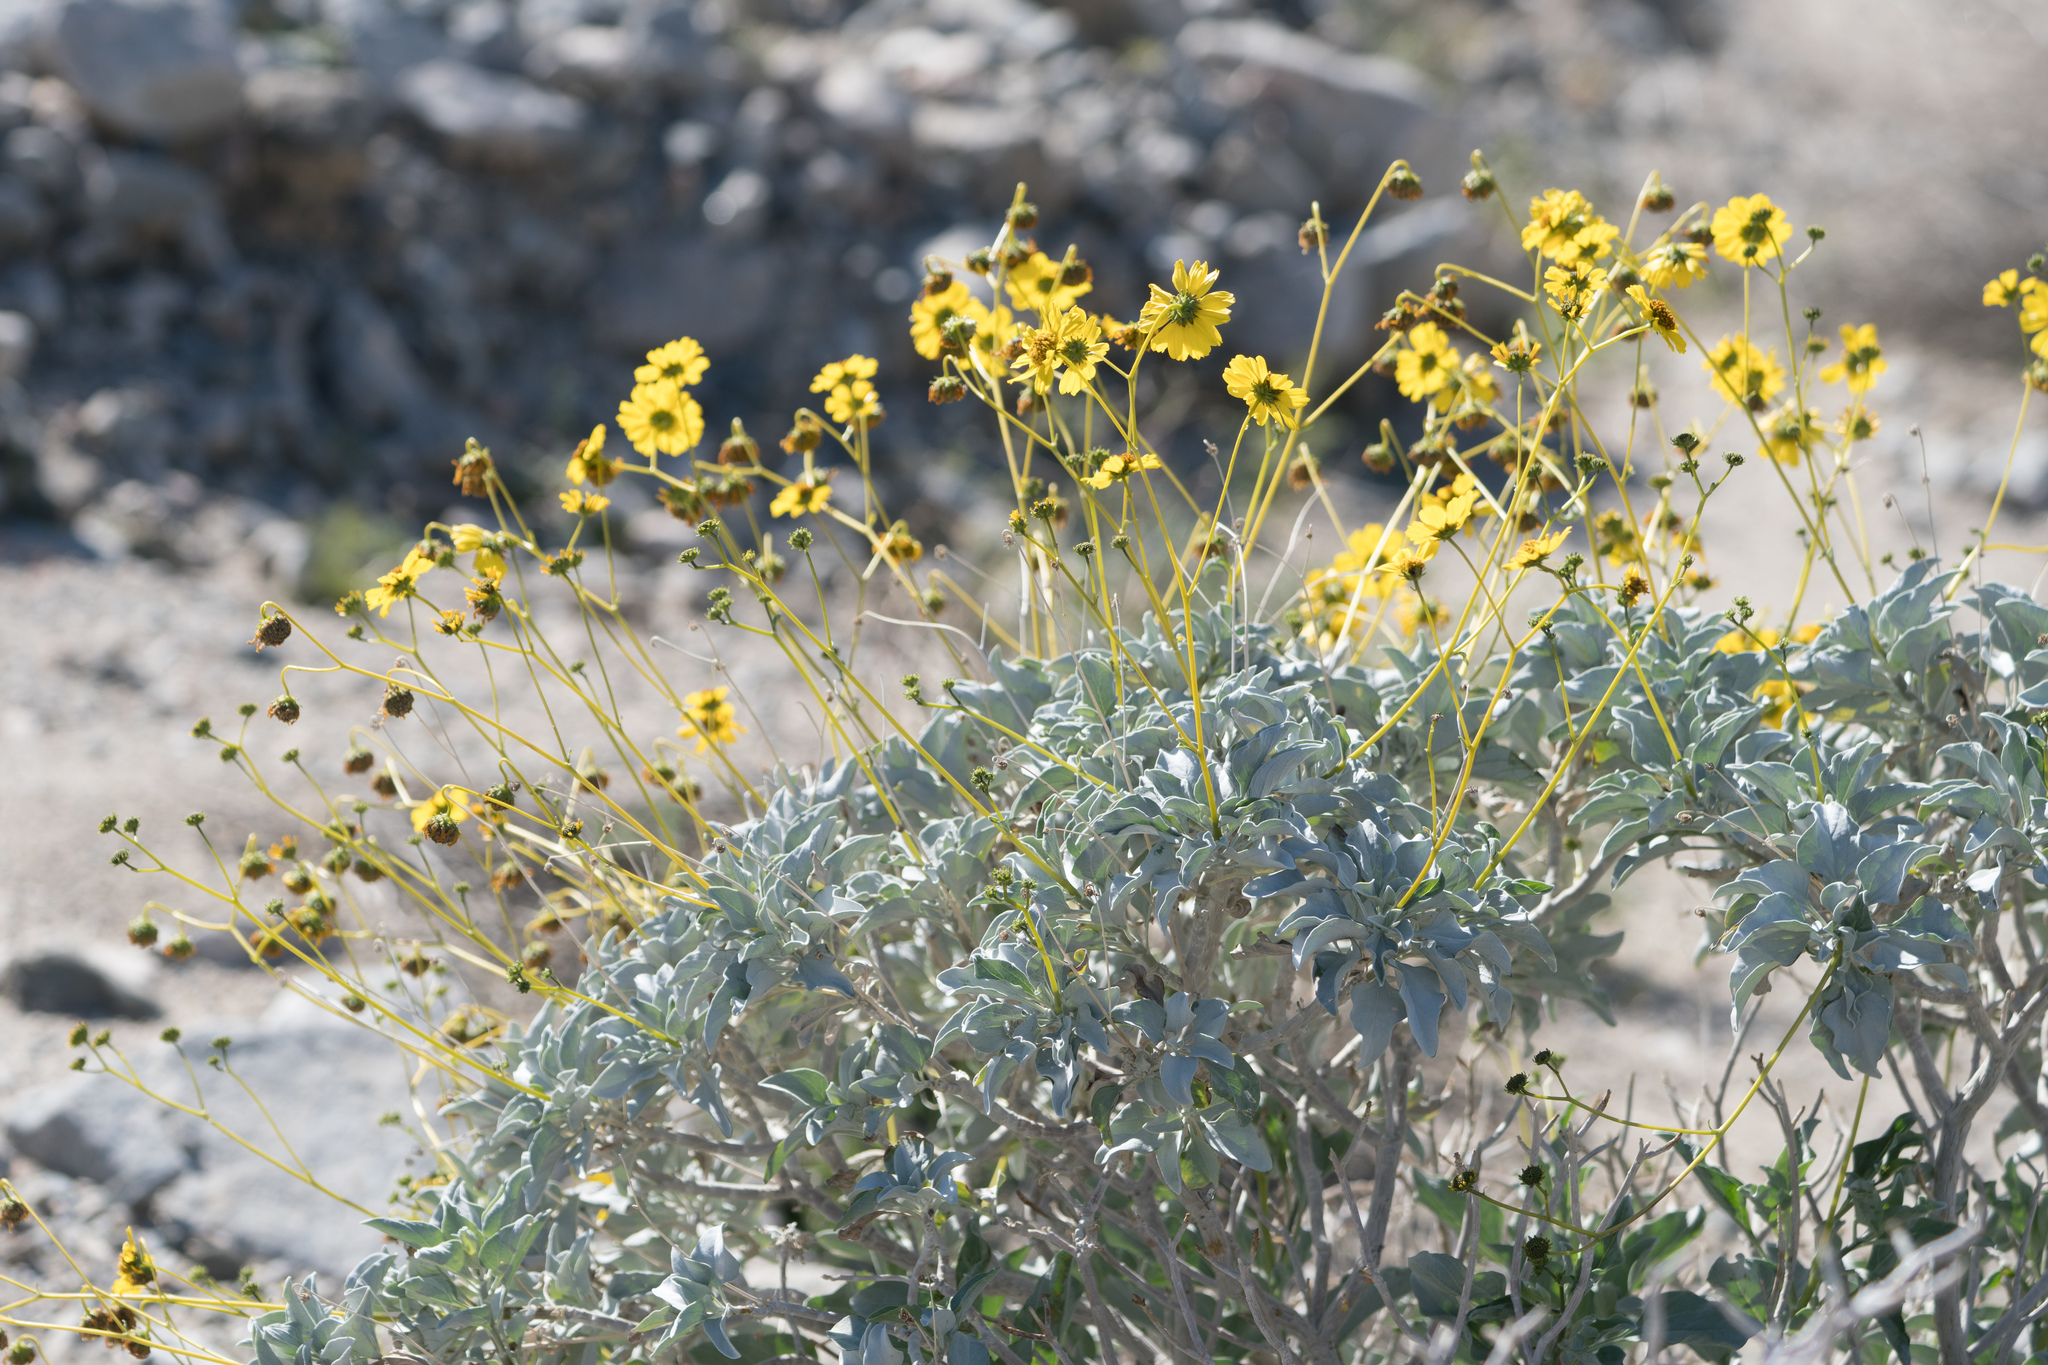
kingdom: Plantae
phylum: Tracheophyta
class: Magnoliopsida
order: Asterales
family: Asteraceae
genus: Encelia
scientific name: Encelia farinosa
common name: Brittlebush
